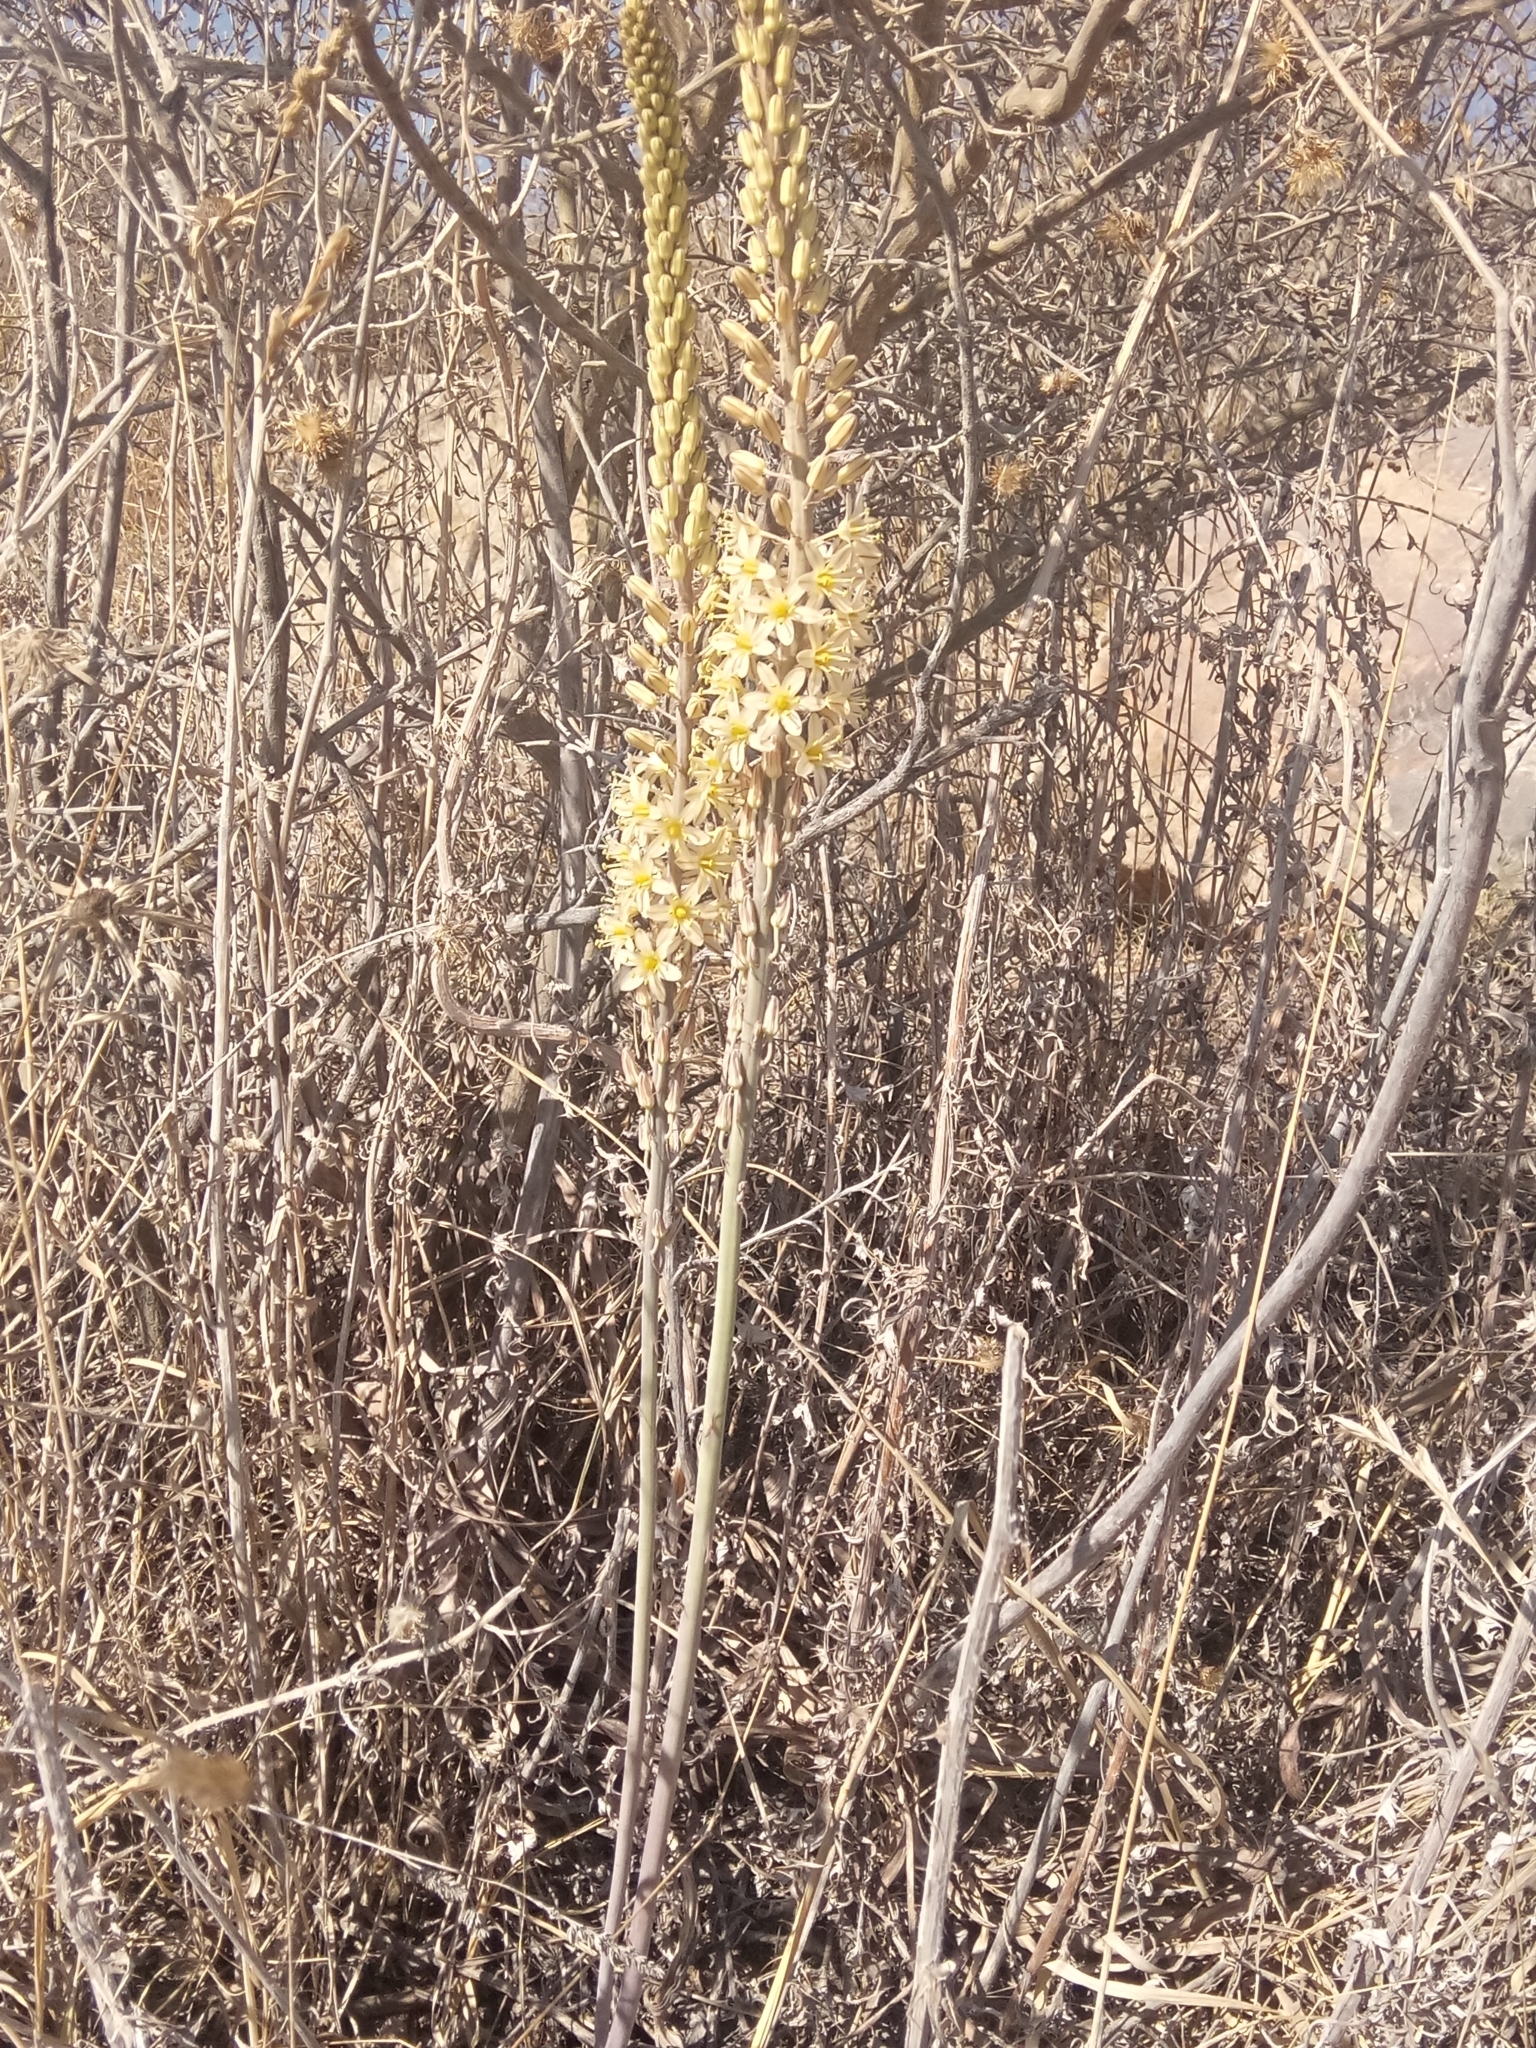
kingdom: Plantae
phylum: Tracheophyta
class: Liliopsida
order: Asparagales
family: Asparagaceae
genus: Drimia
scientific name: Drimia anthericoides
